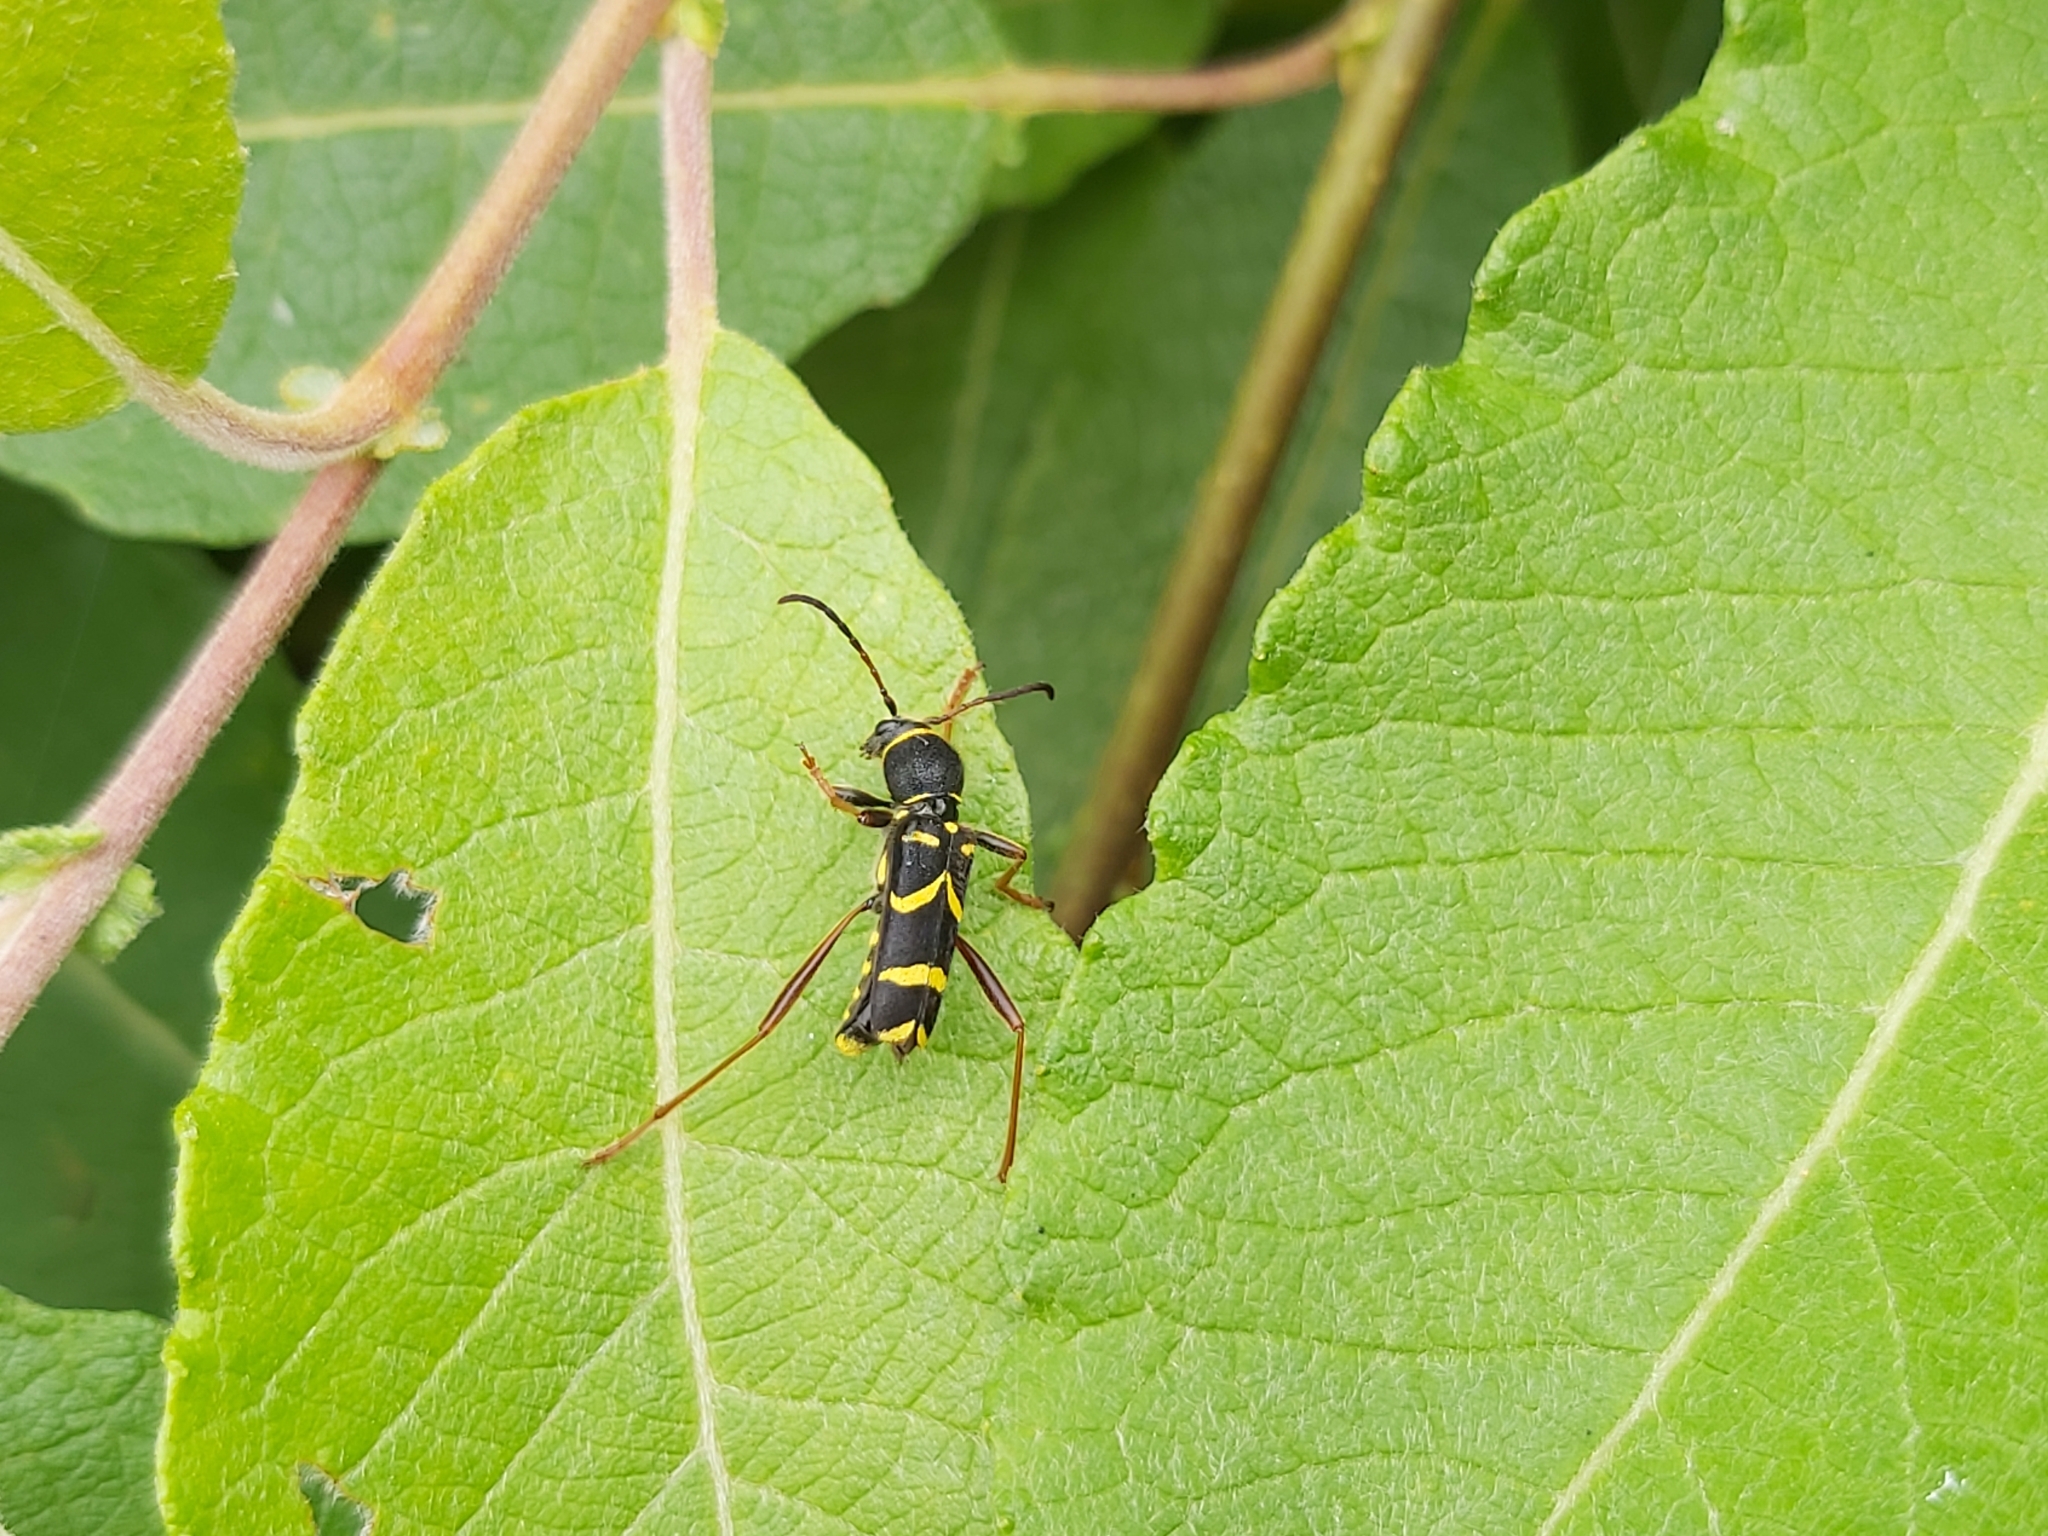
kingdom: Animalia
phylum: Arthropoda
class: Insecta
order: Coleoptera
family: Cerambycidae
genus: Clytus
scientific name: Clytus arietis
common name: Wasp beetle
